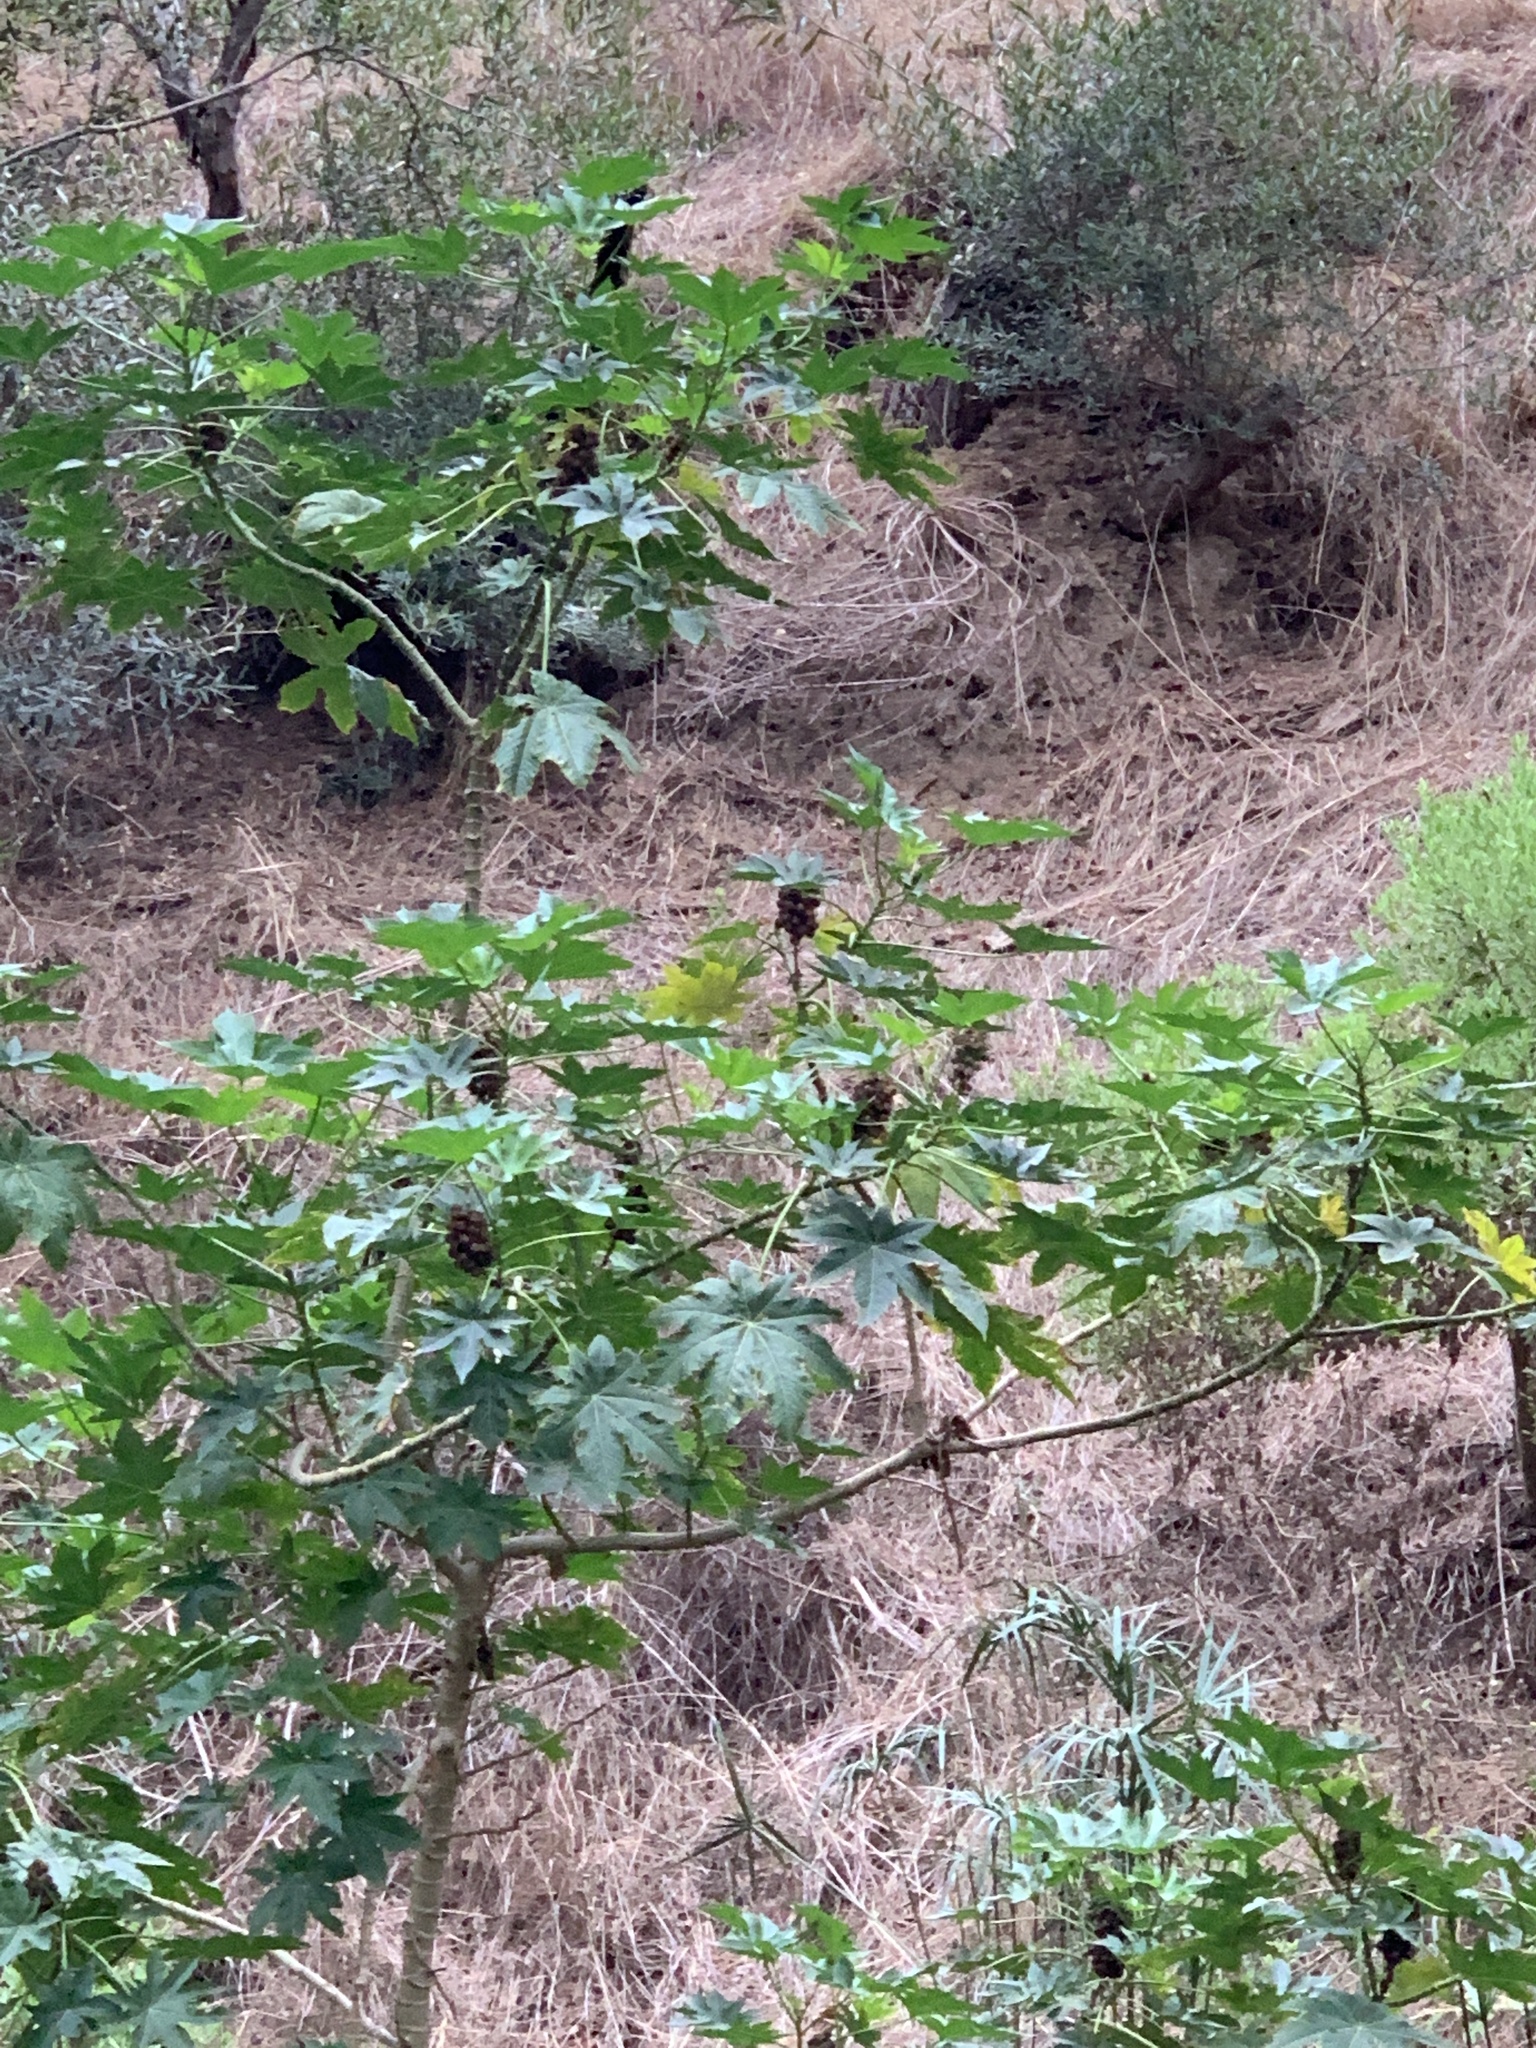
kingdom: Plantae
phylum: Tracheophyta
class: Magnoliopsida
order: Malpighiales
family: Euphorbiaceae
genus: Ricinus
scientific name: Ricinus communis
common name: Castor-oil-plant
